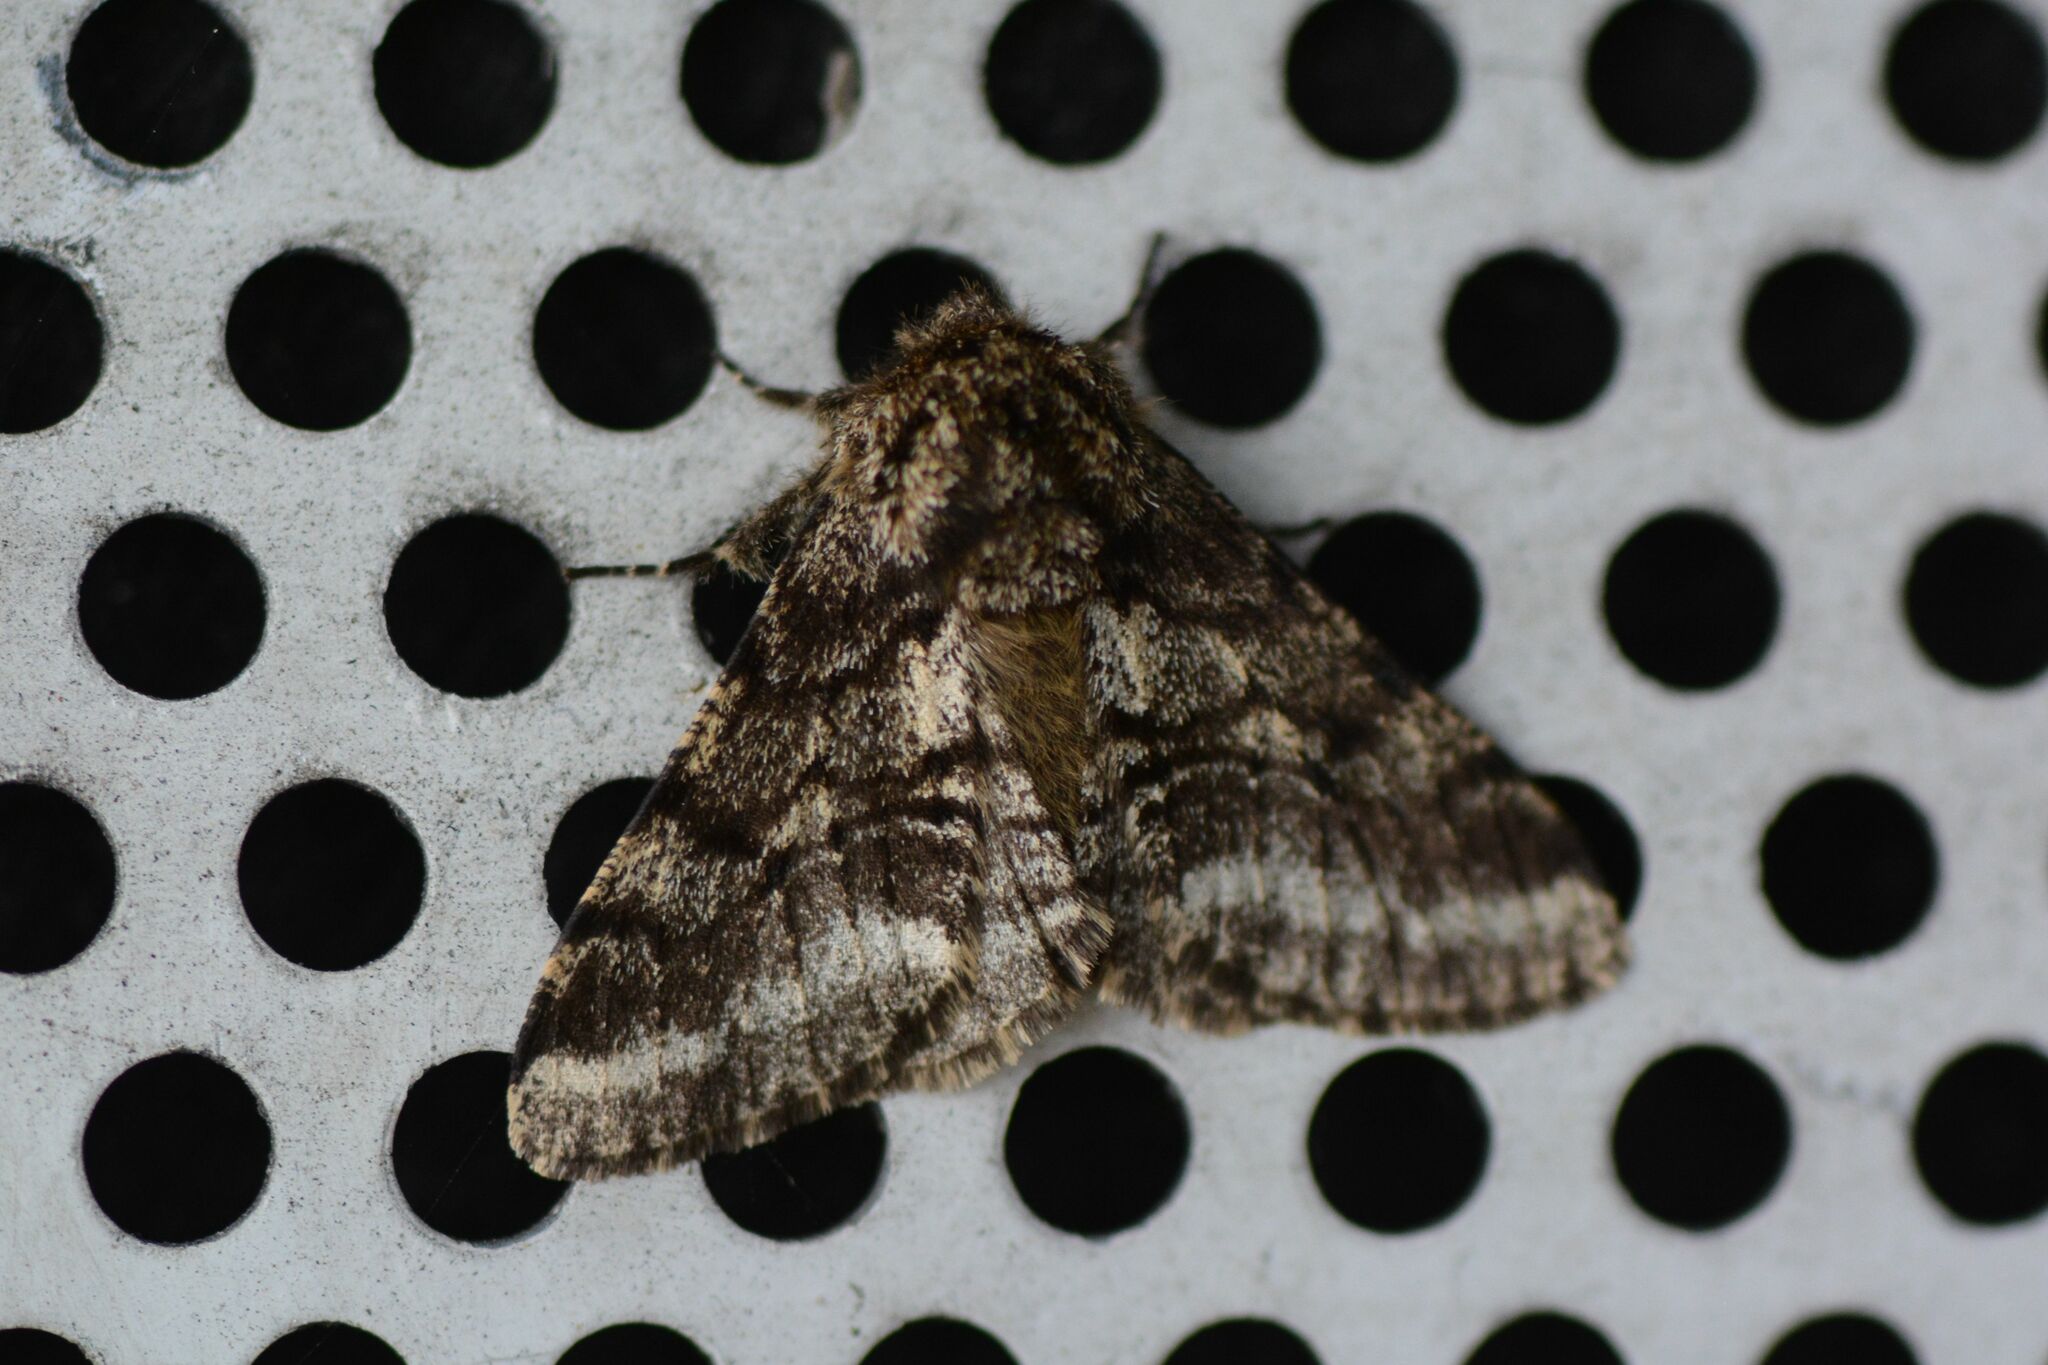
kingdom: Animalia
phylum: Arthropoda
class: Insecta
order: Lepidoptera
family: Geometridae
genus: Lycia
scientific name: Lycia hirtaria
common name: Brindled beauty
